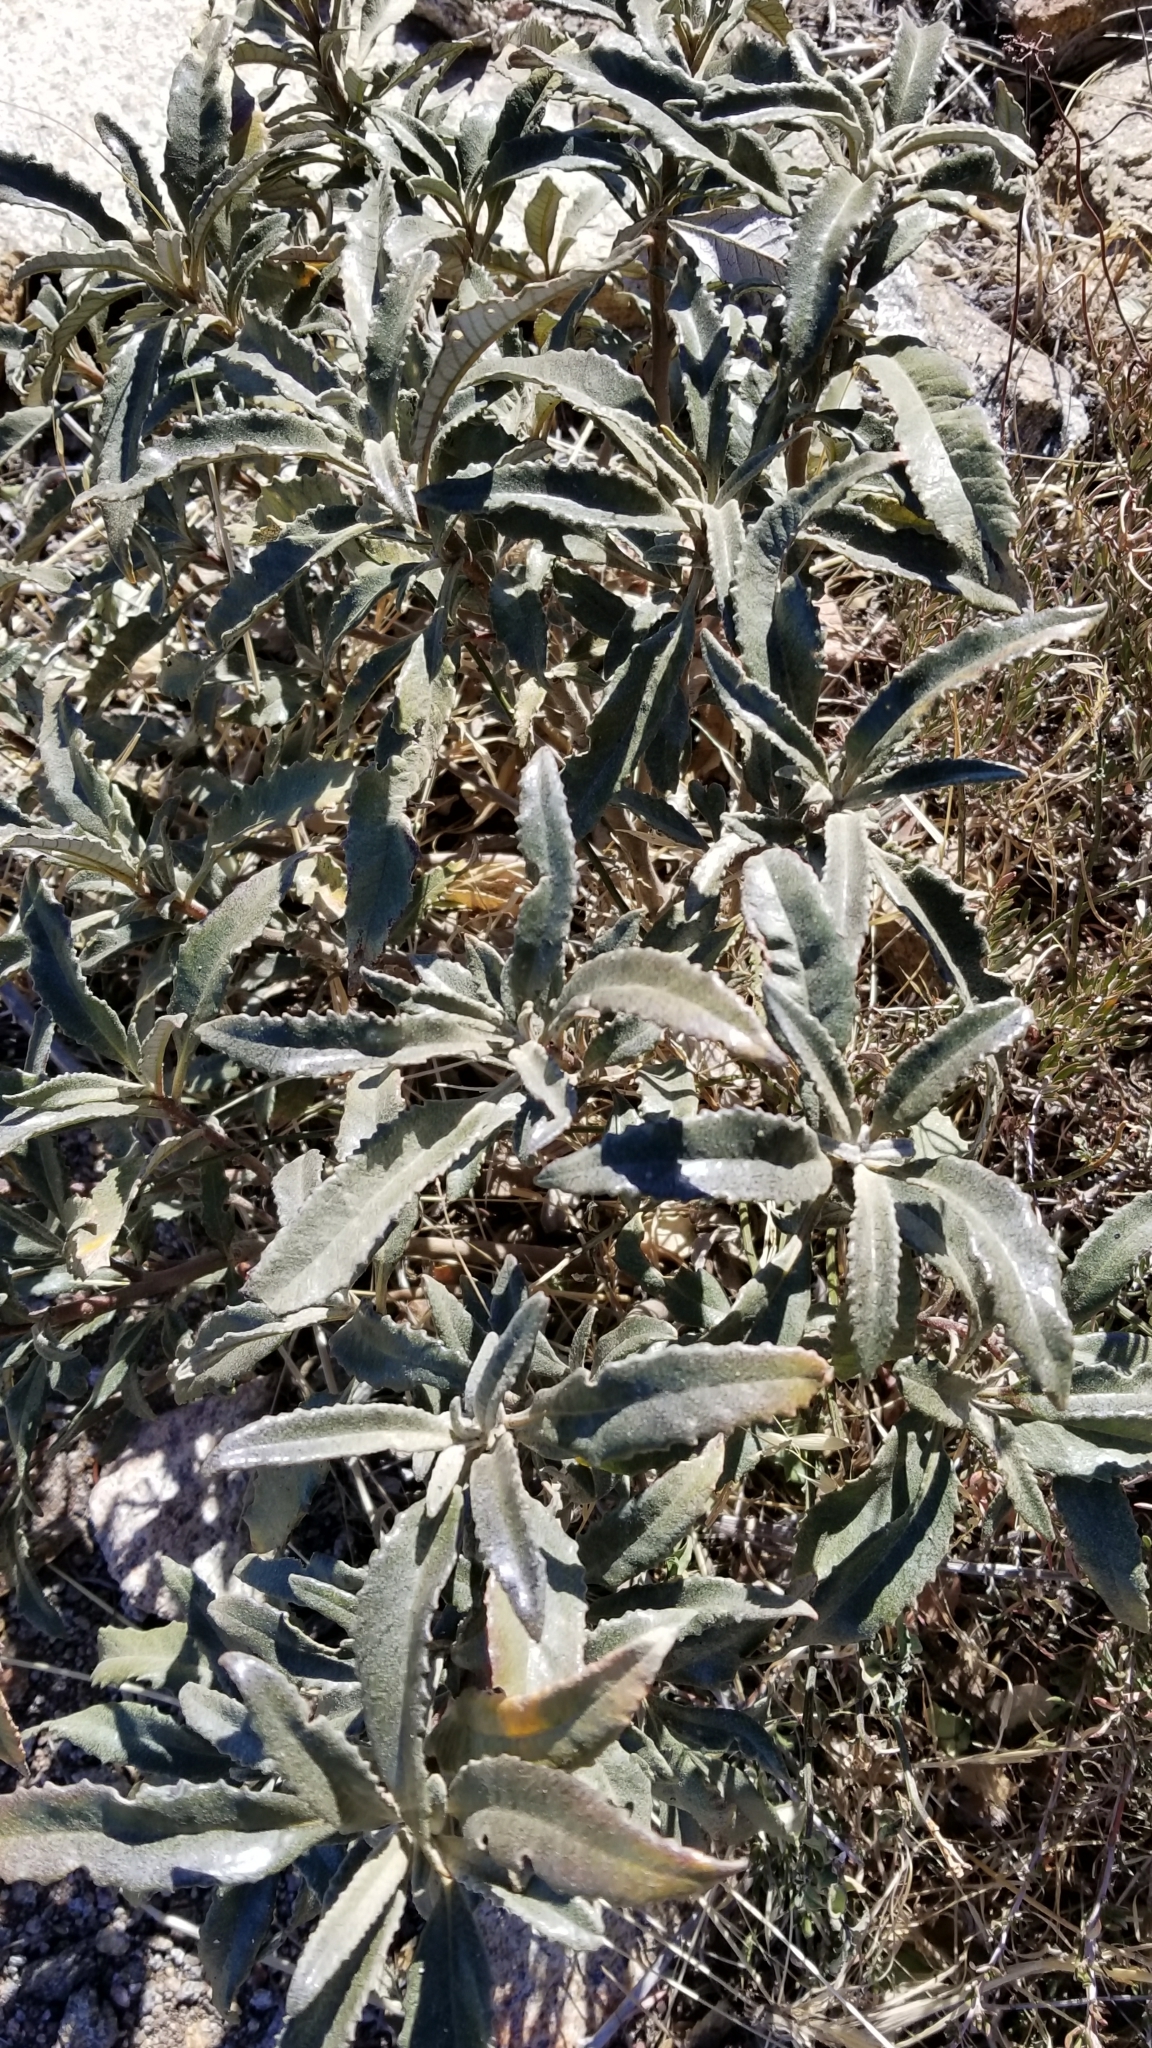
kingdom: Plantae
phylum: Tracheophyta
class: Magnoliopsida
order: Boraginales
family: Namaceae
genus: Eriodictyon
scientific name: Eriodictyon trichocalyx
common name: Hairy yerba-santa
